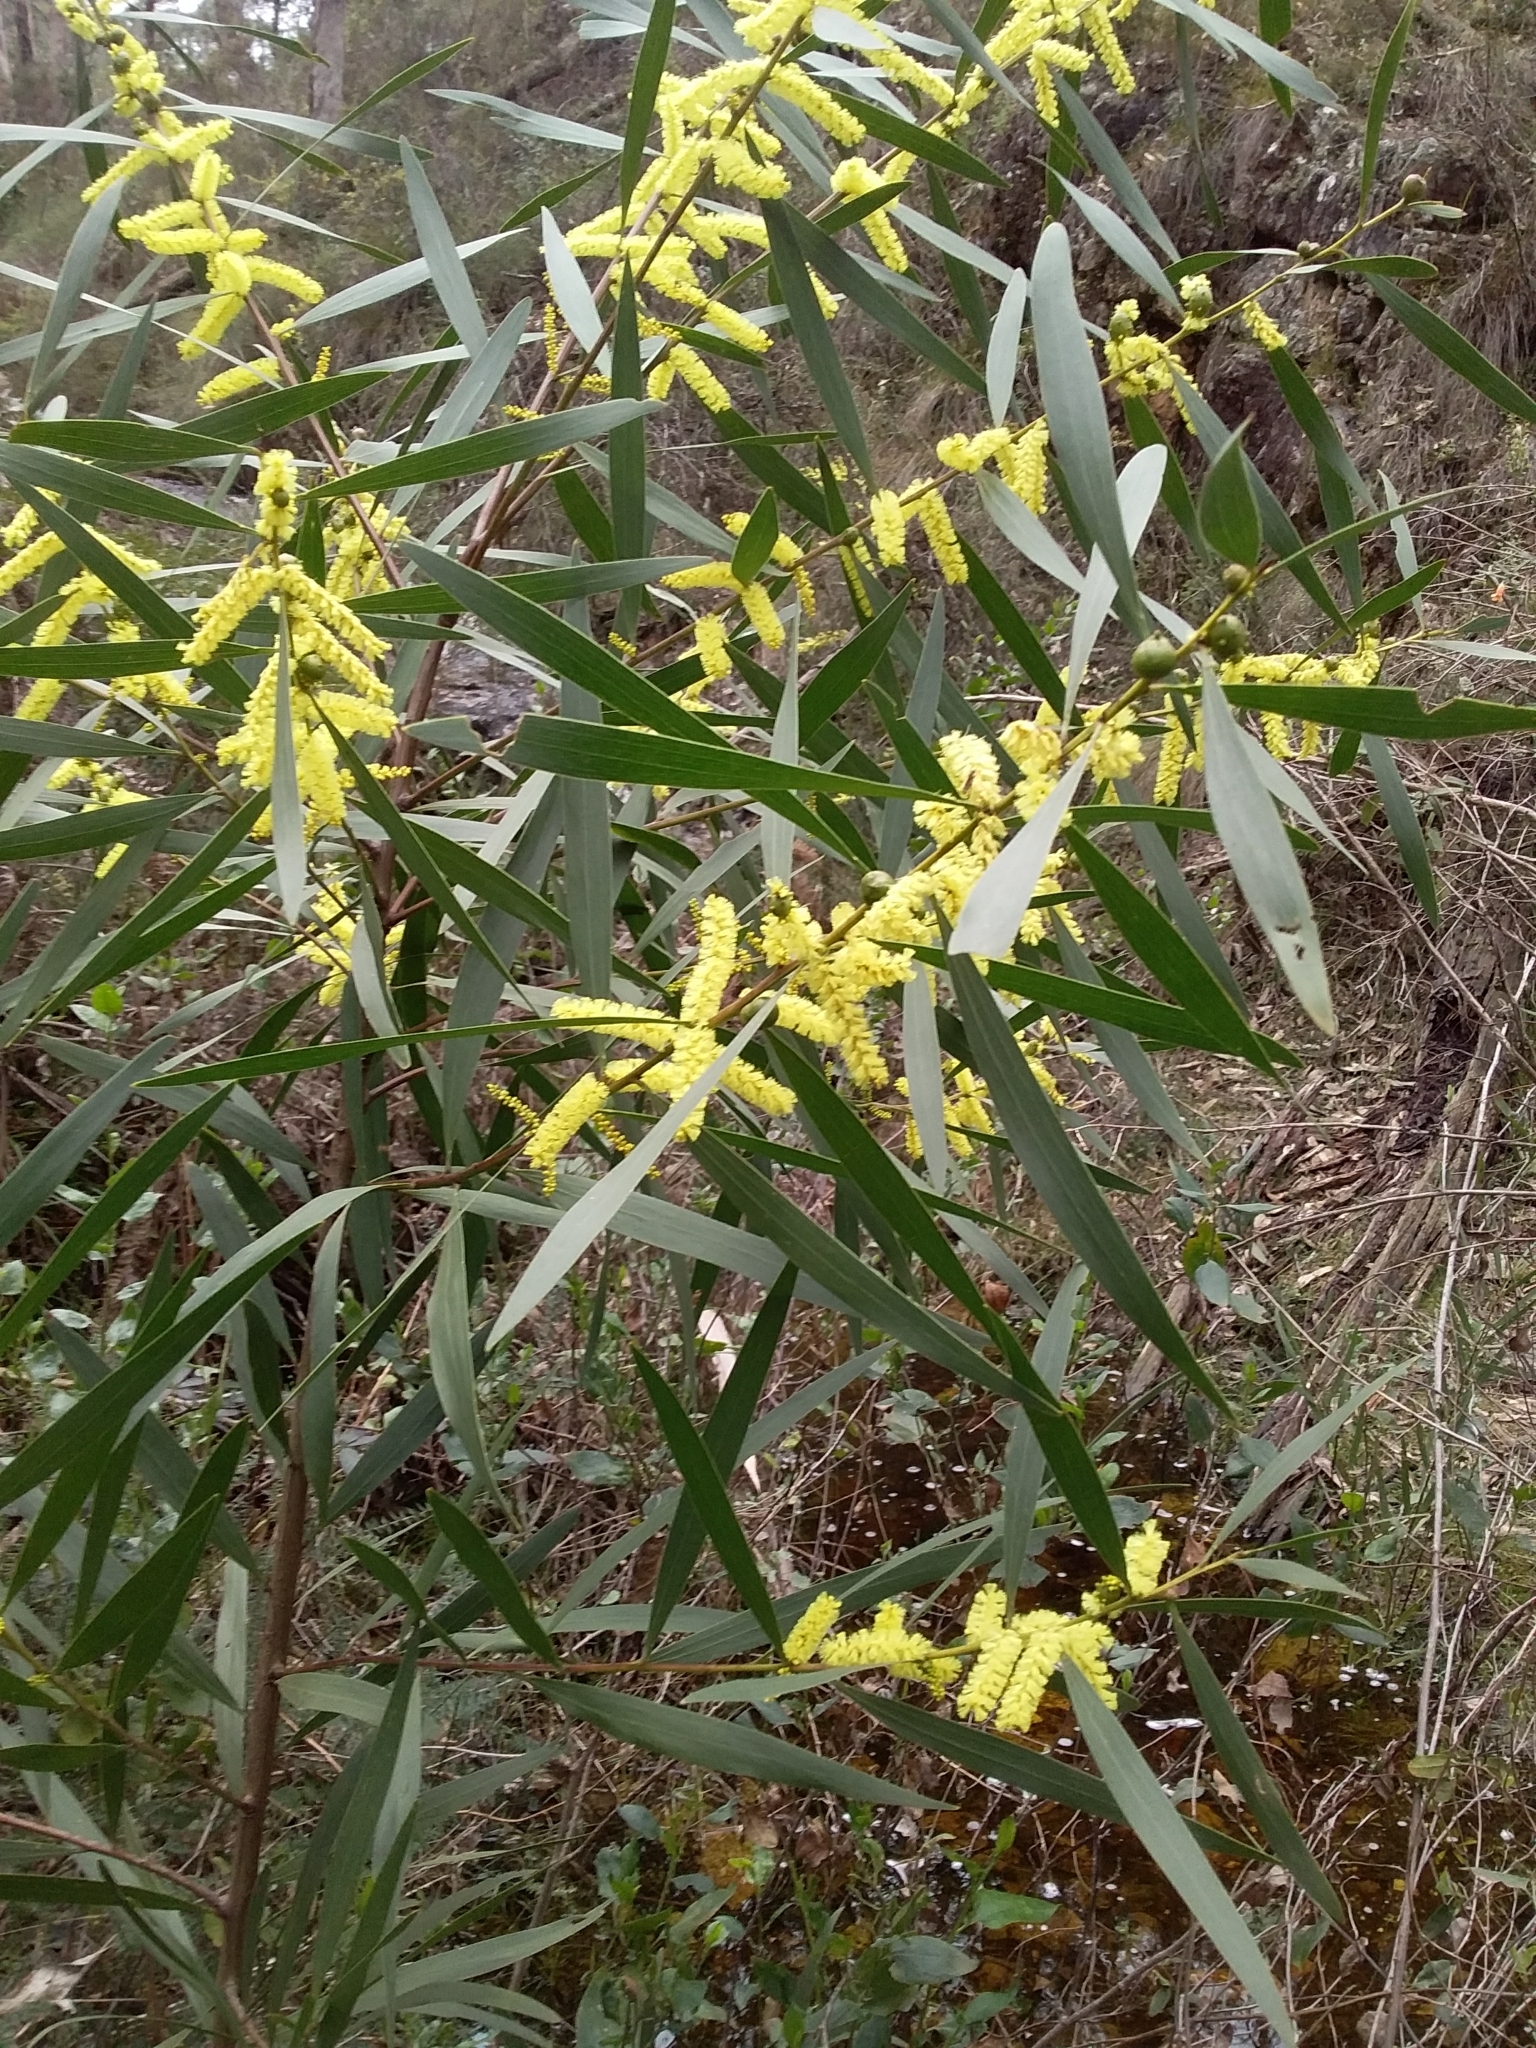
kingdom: Plantae
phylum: Tracheophyta
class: Magnoliopsida
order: Fabales
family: Fabaceae
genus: Acacia
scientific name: Acacia longifolia
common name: Sydney golden wattle
